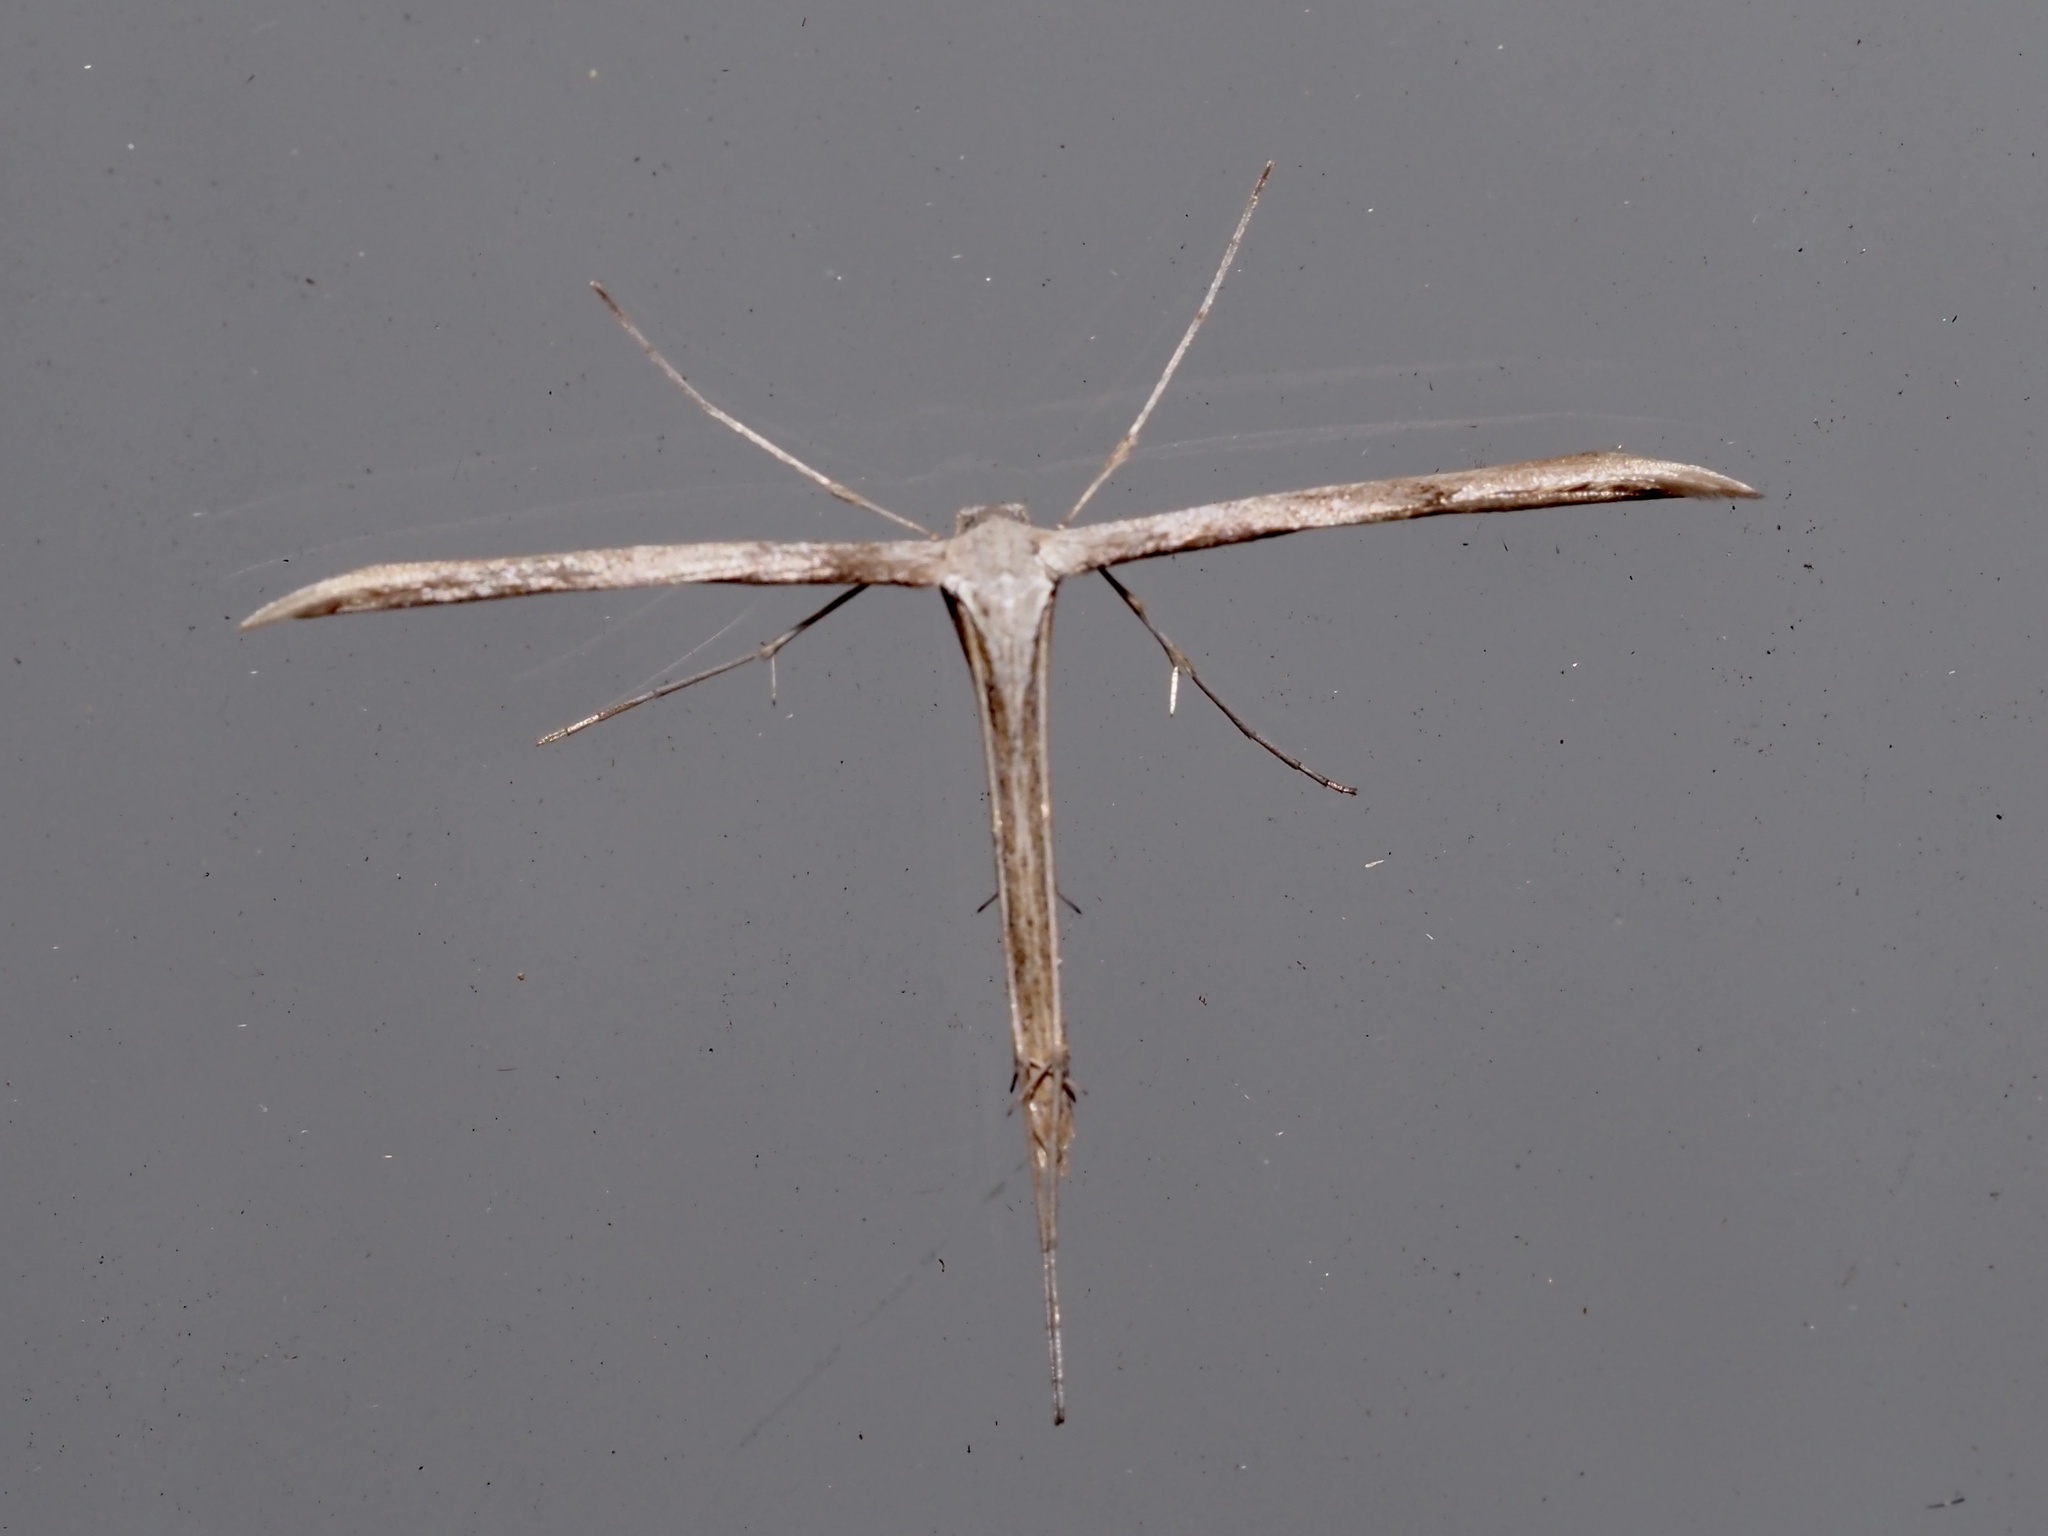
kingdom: Animalia
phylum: Arthropoda
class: Insecta
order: Lepidoptera
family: Pterophoridae
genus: Emmelina
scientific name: Emmelina monodactyla
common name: Common plume
